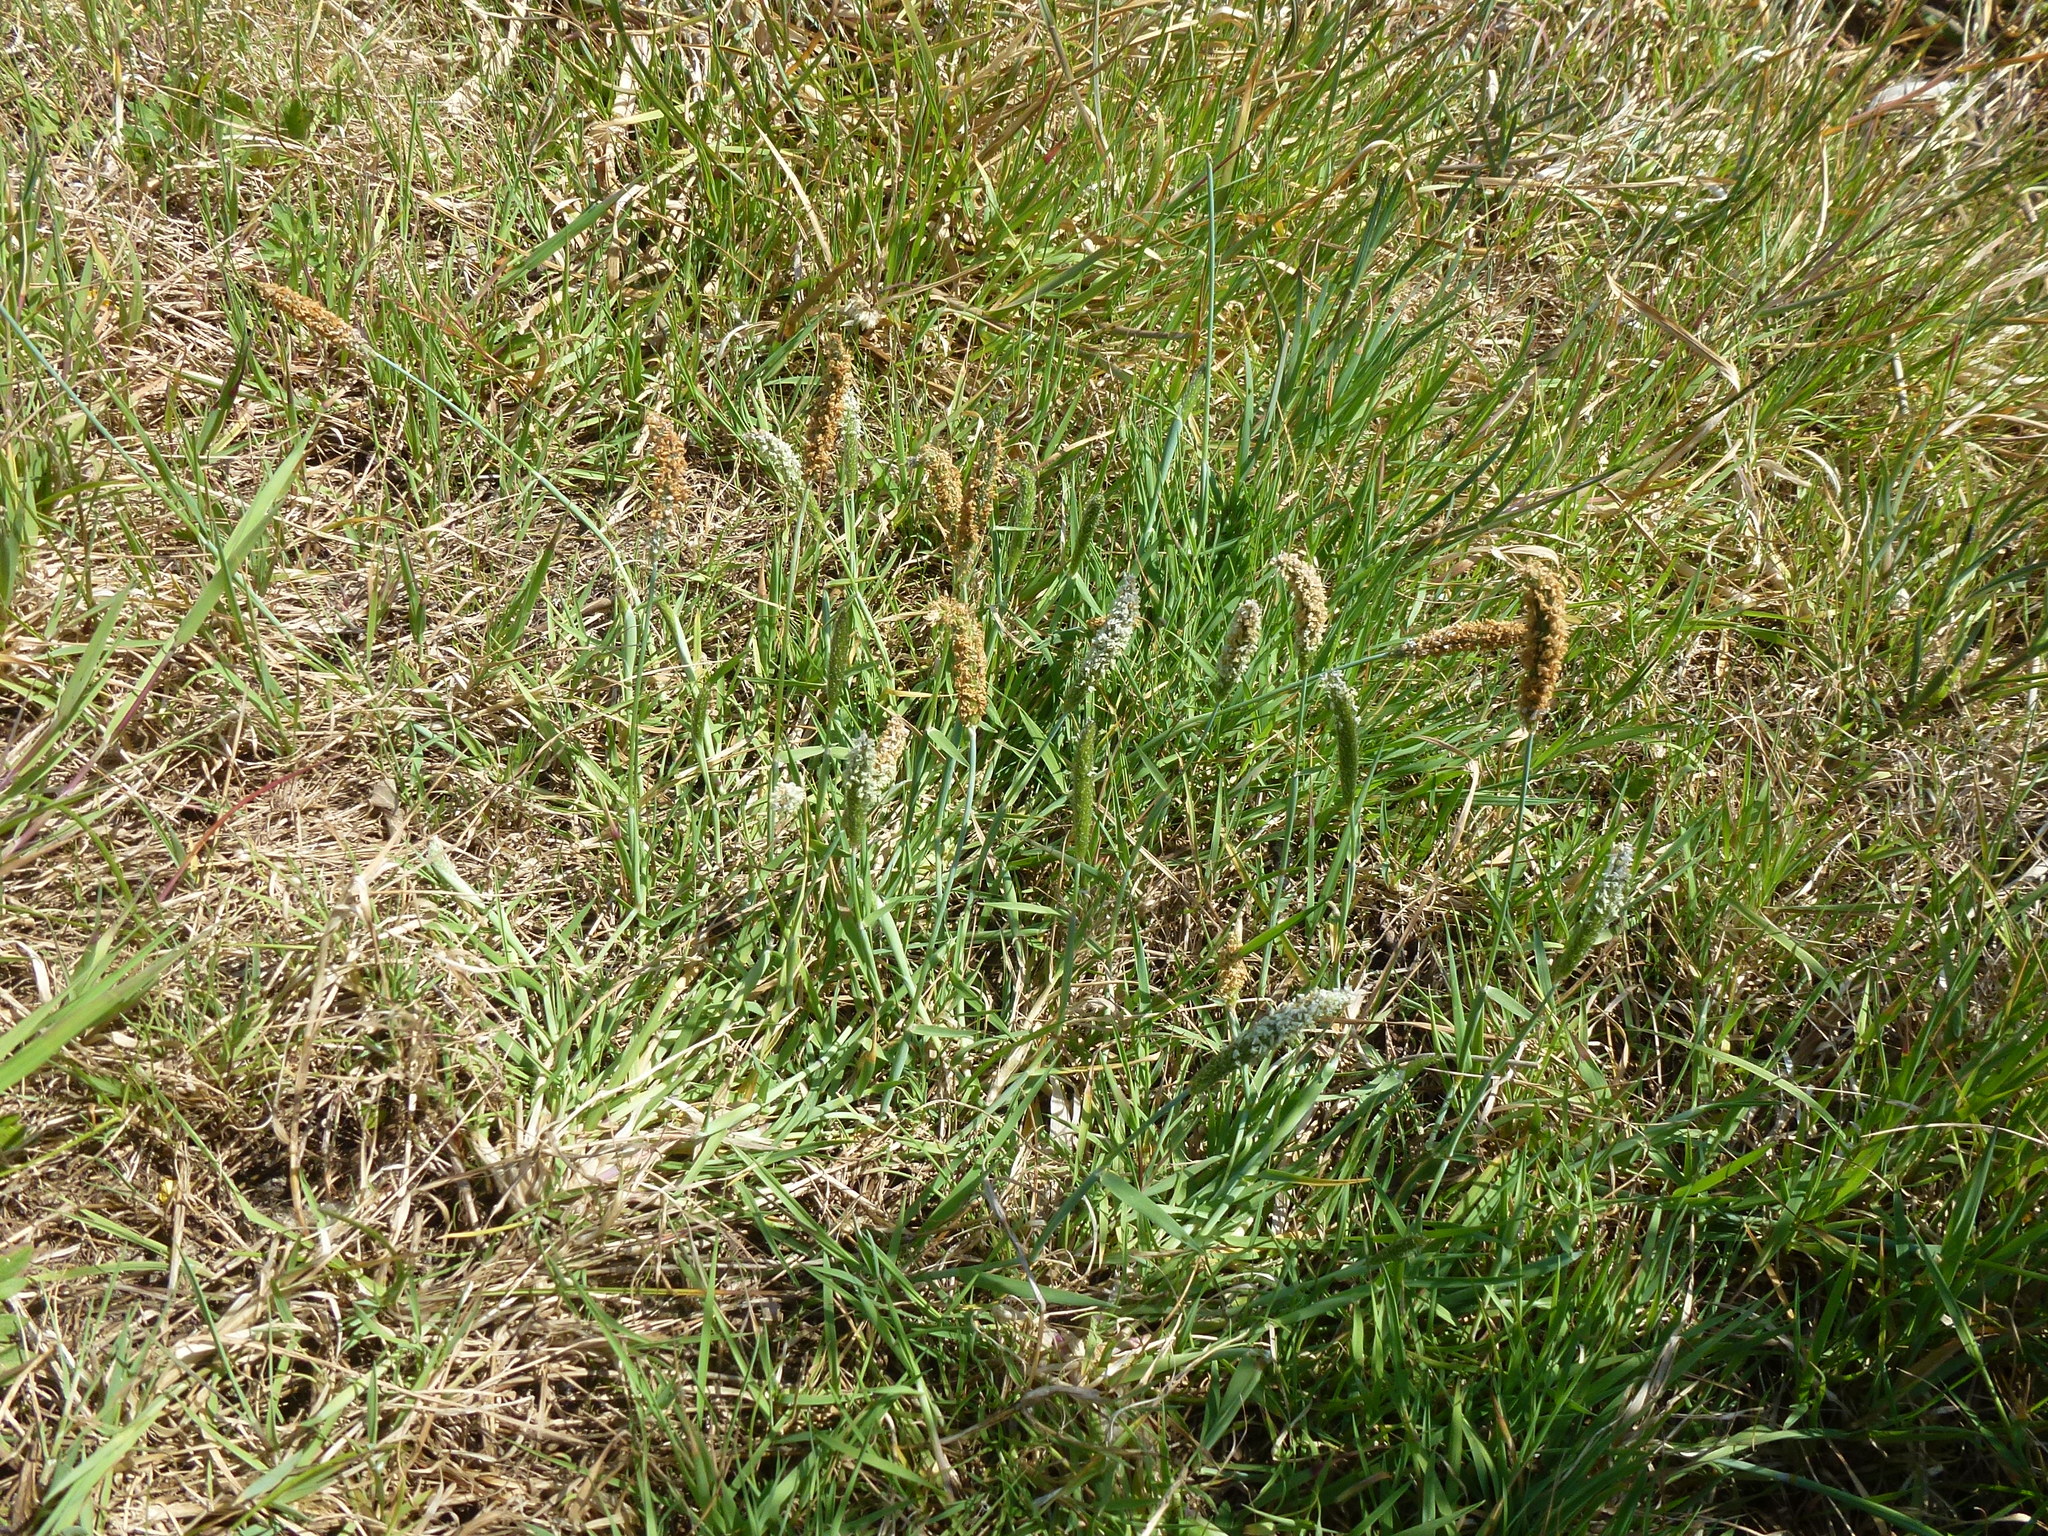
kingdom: Plantae
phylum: Tracheophyta
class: Liliopsida
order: Poales
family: Poaceae
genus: Alopecurus
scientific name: Alopecurus geniculatus
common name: Water foxtail
